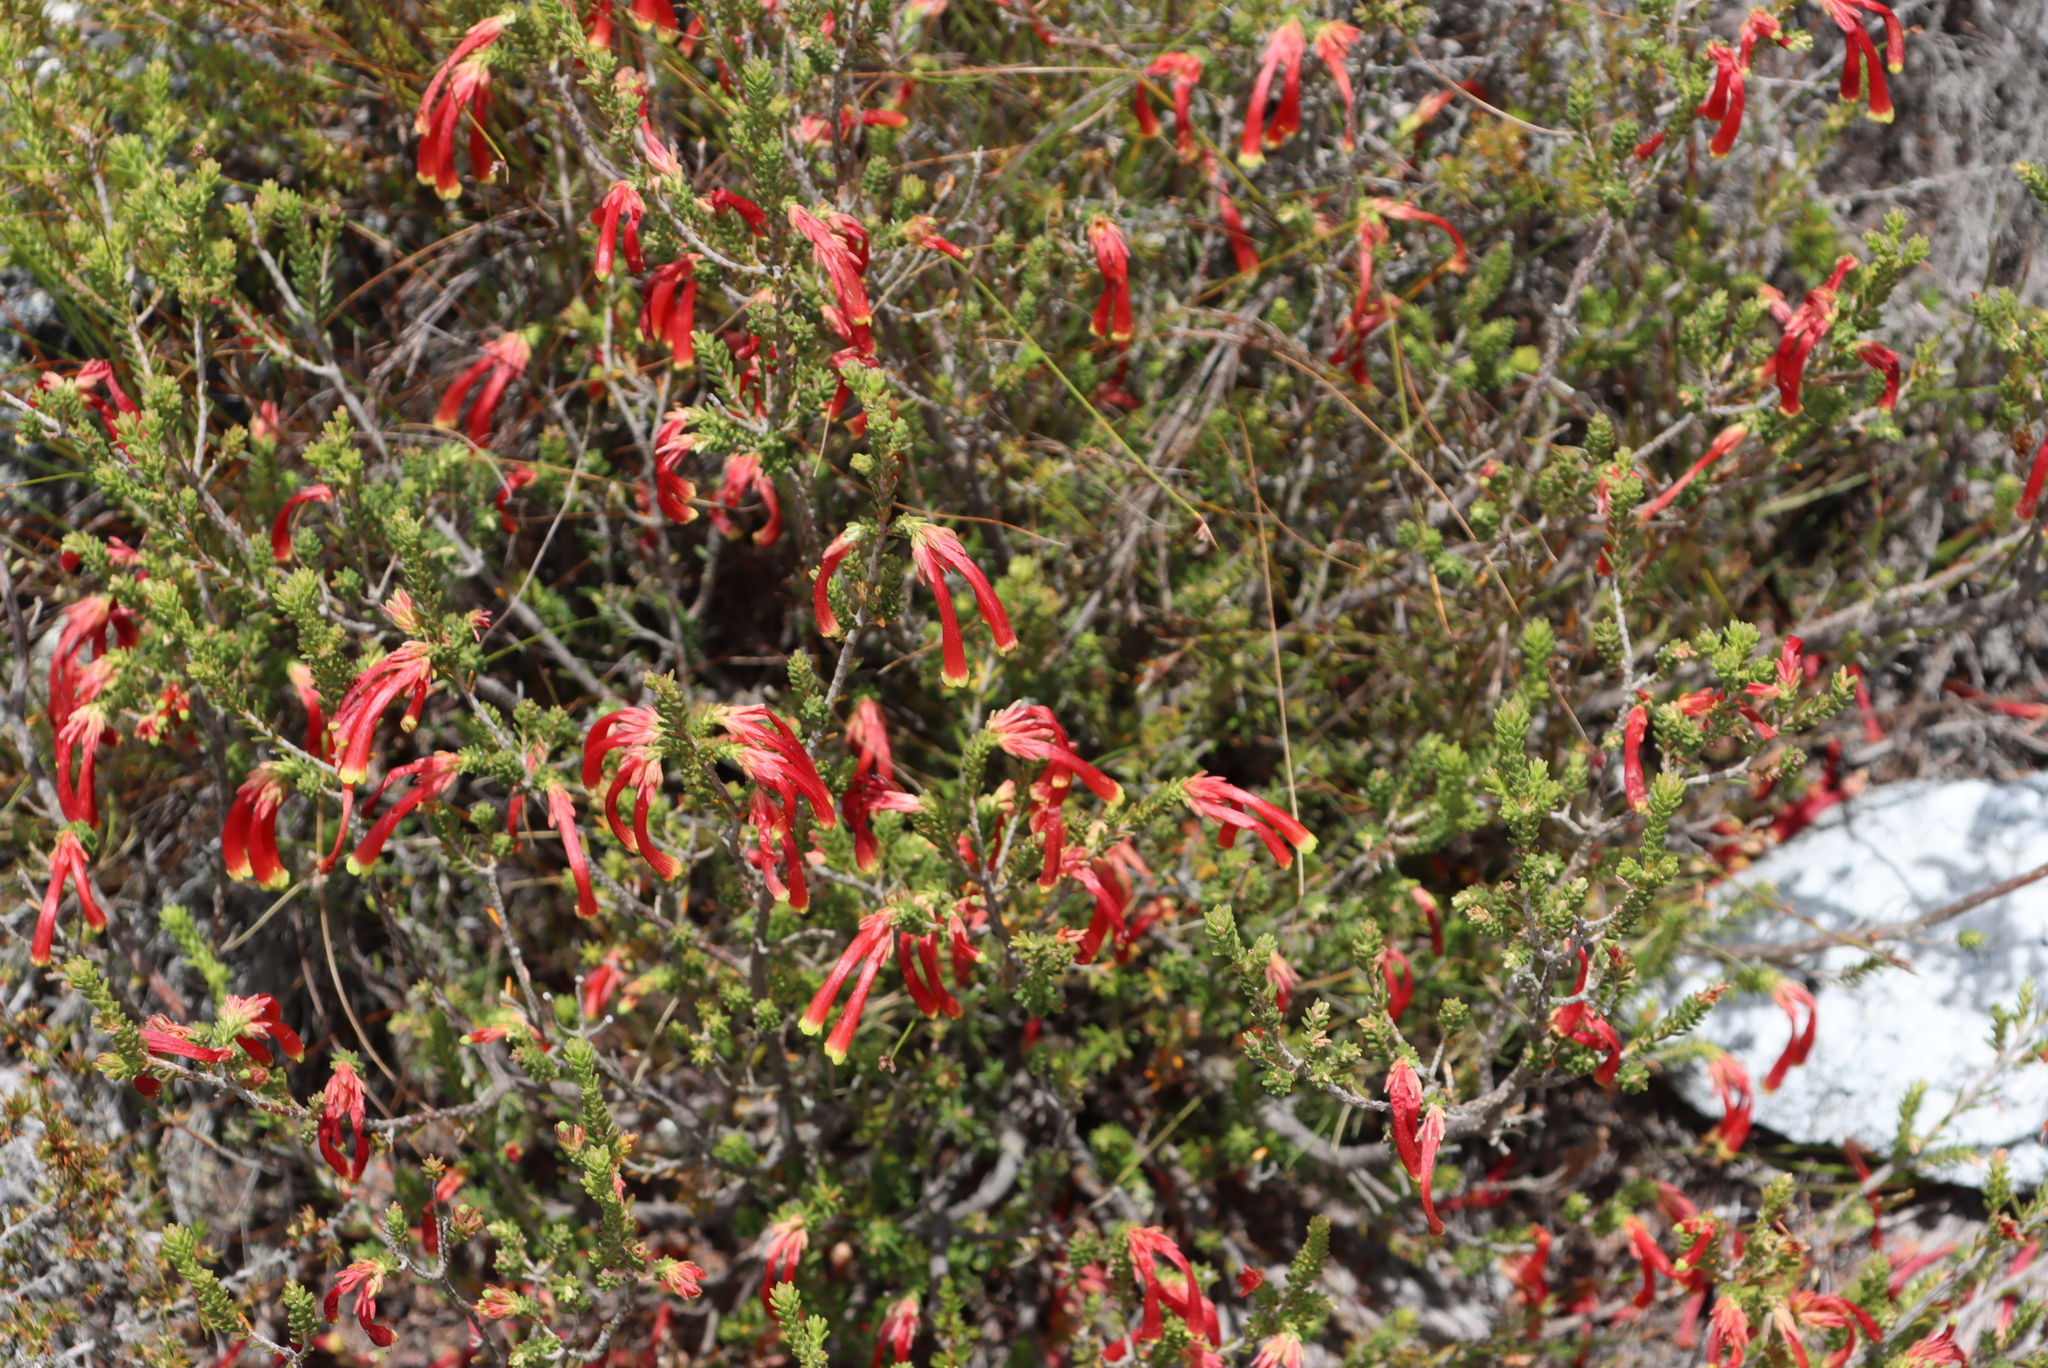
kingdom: Plantae
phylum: Tracheophyta
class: Magnoliopsida
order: Ericales
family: Ericaceae
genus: Erica
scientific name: Erica discolor
